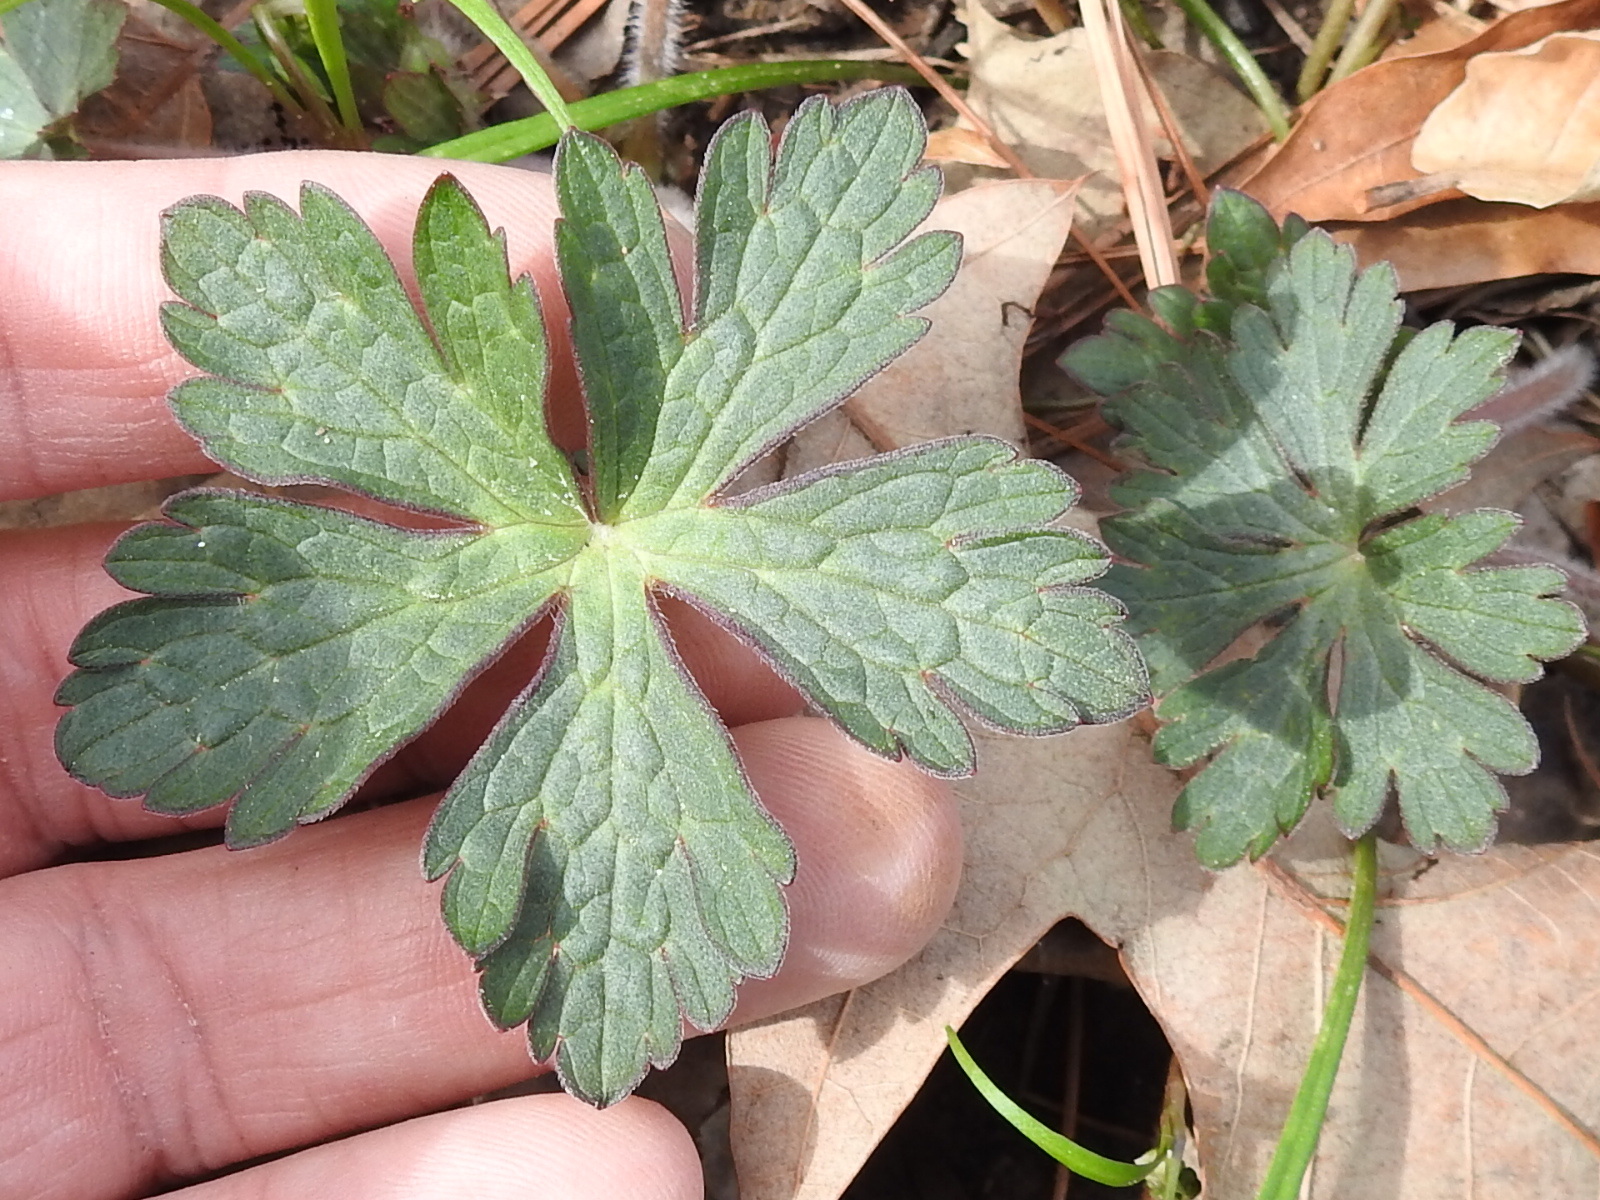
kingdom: Plantae
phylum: Tracheophyta
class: Magnoliopsida
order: Geraniales
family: Geraniaceae
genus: Geranium
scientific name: Geranium maculatum
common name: Spotted geranium
